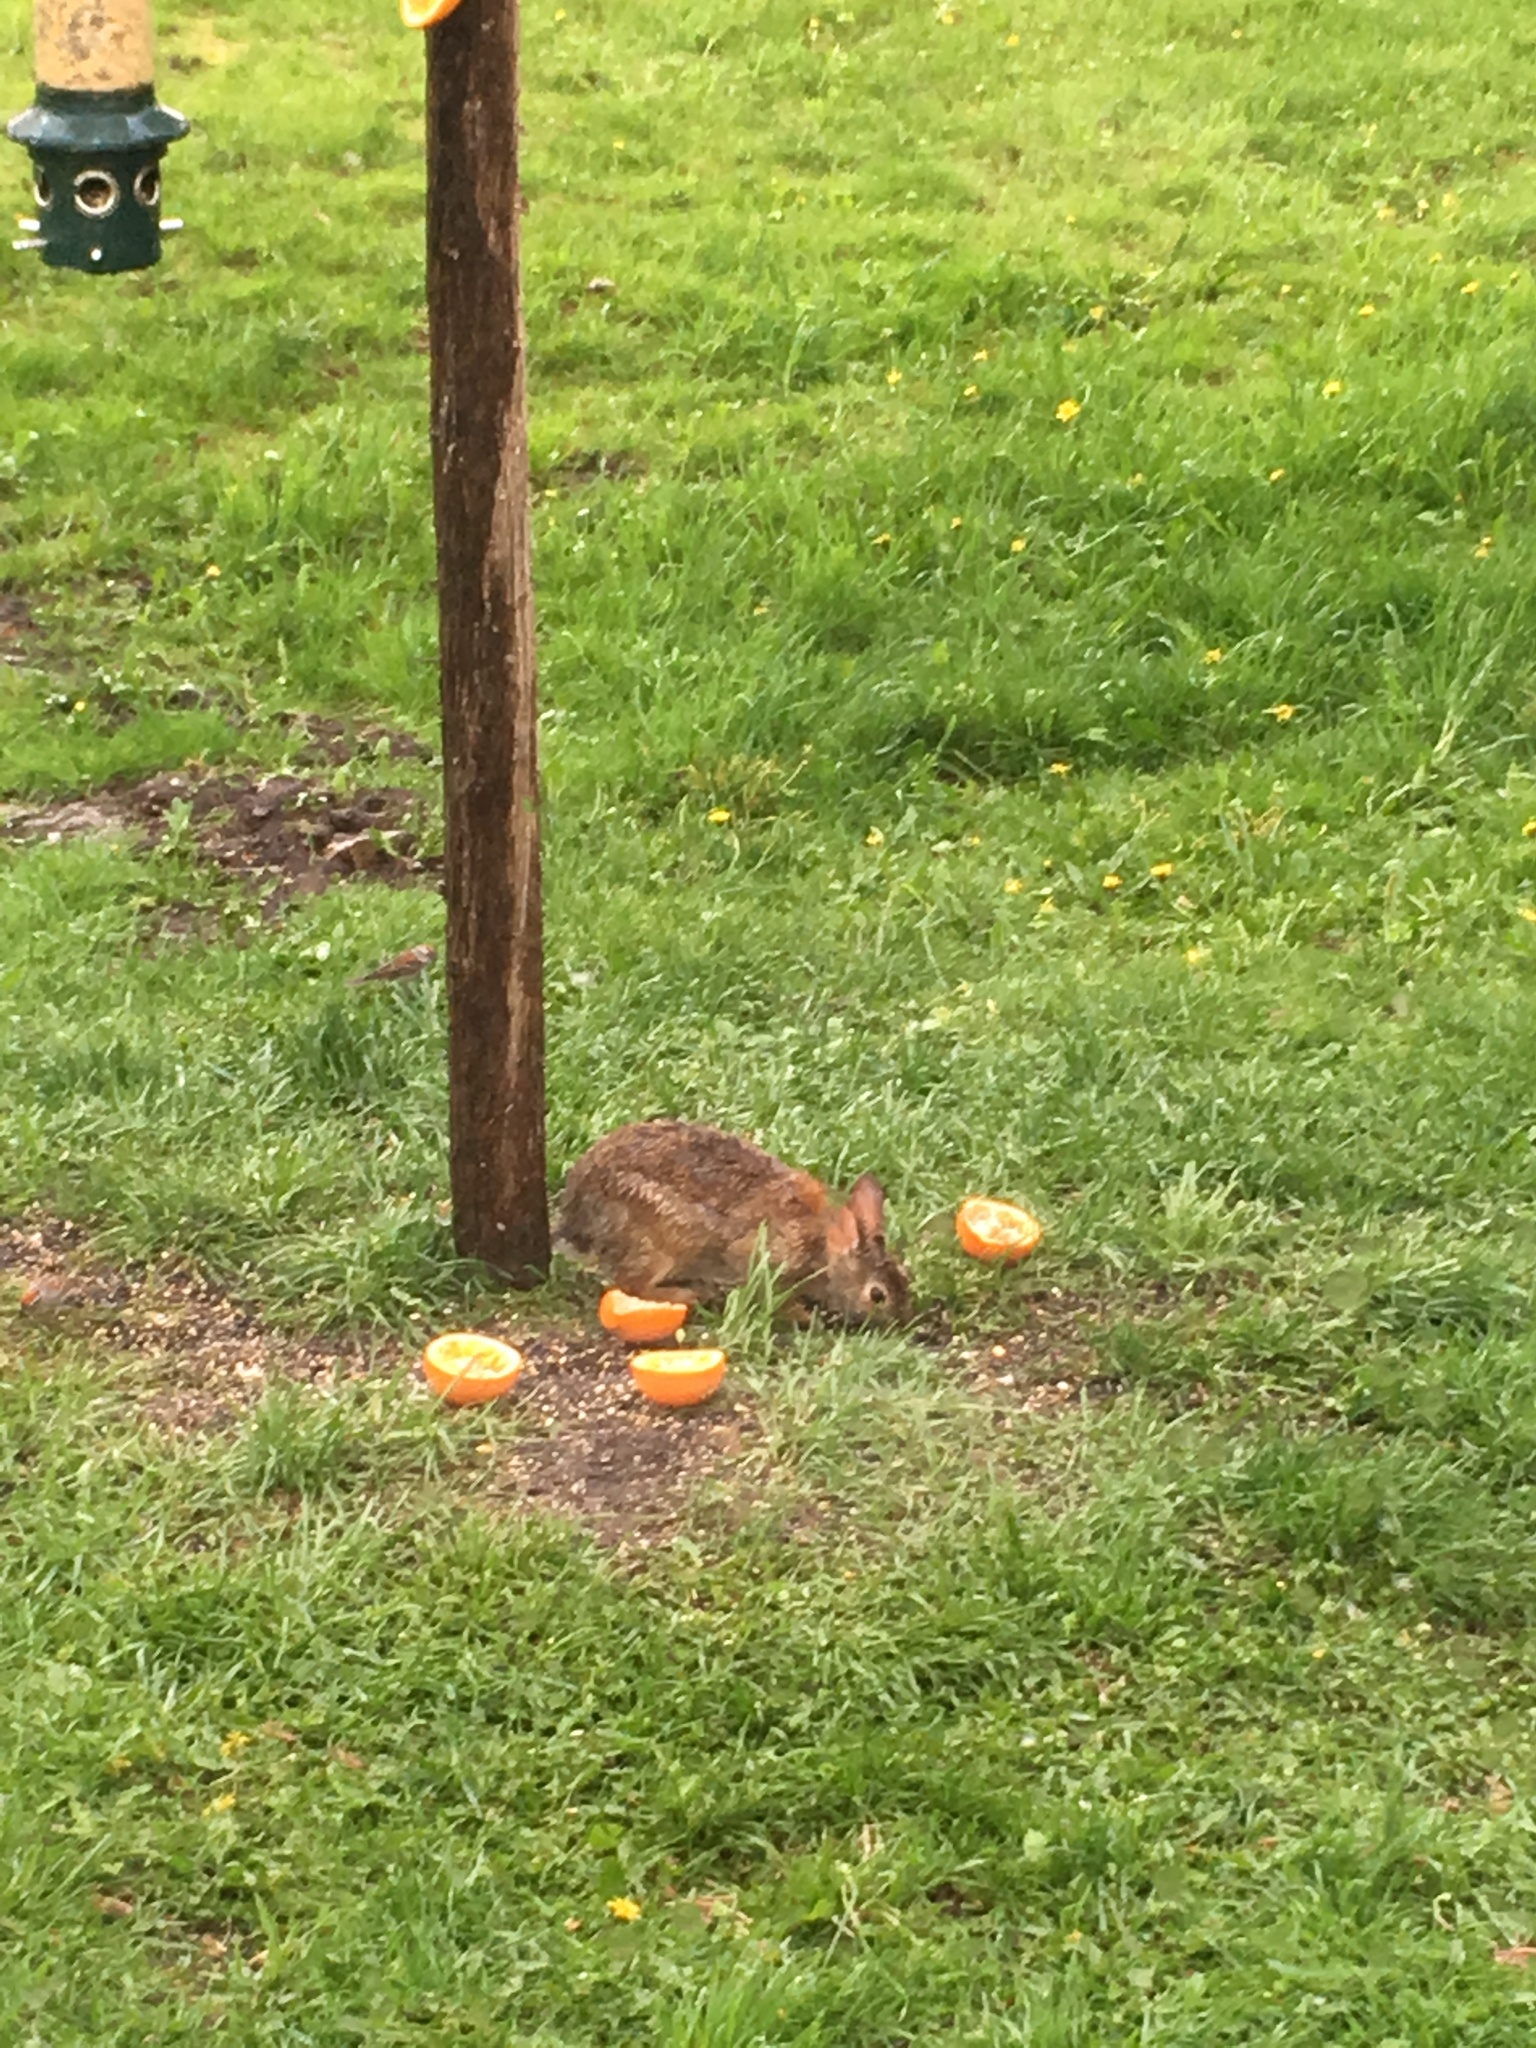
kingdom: Animalia
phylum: Chordata
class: Mammalia
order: Lagomorpha
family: Leporidae
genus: Sylvilagus
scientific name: Sylvilagus floridanus
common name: Eastern cottontail
